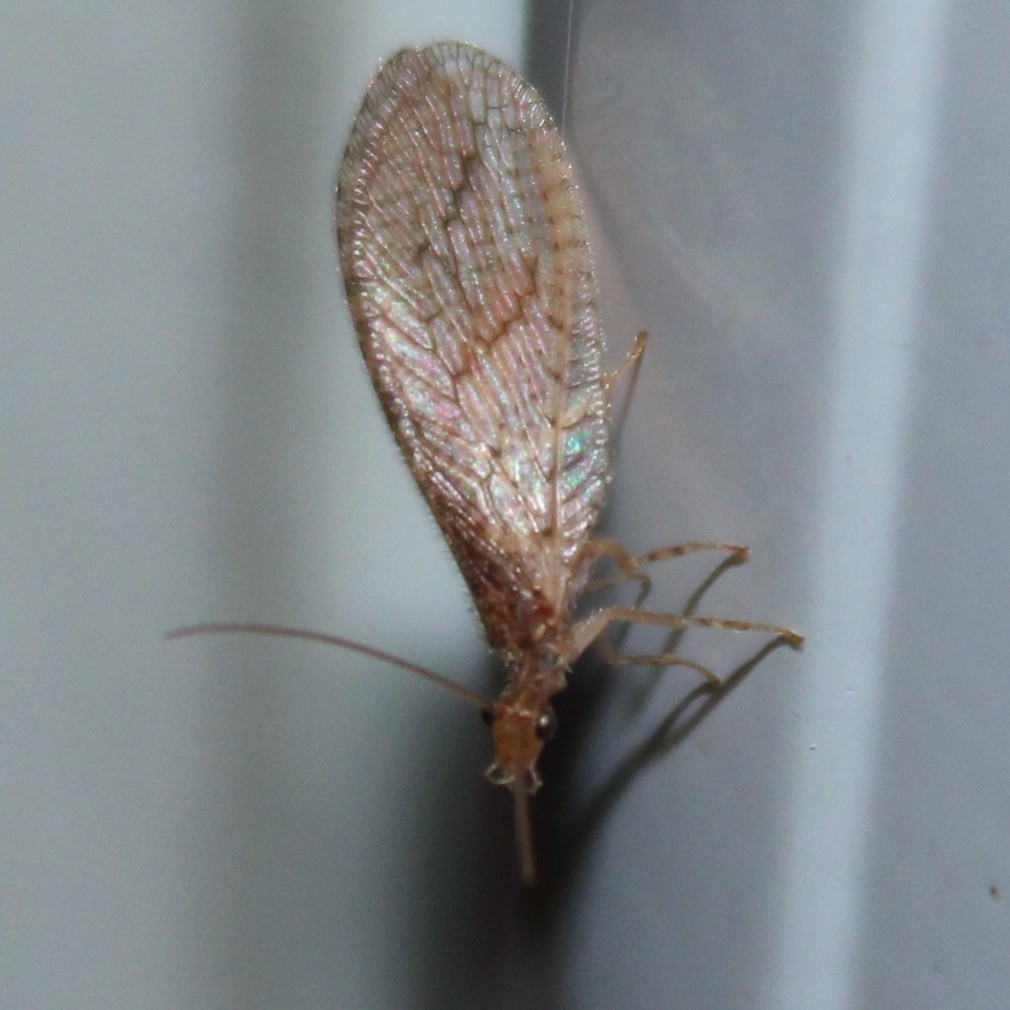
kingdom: Animalia
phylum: Arthropoda
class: Insecta
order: Neuroptera
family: Hemerobiidae
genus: Micromus
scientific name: Micromus posticus
